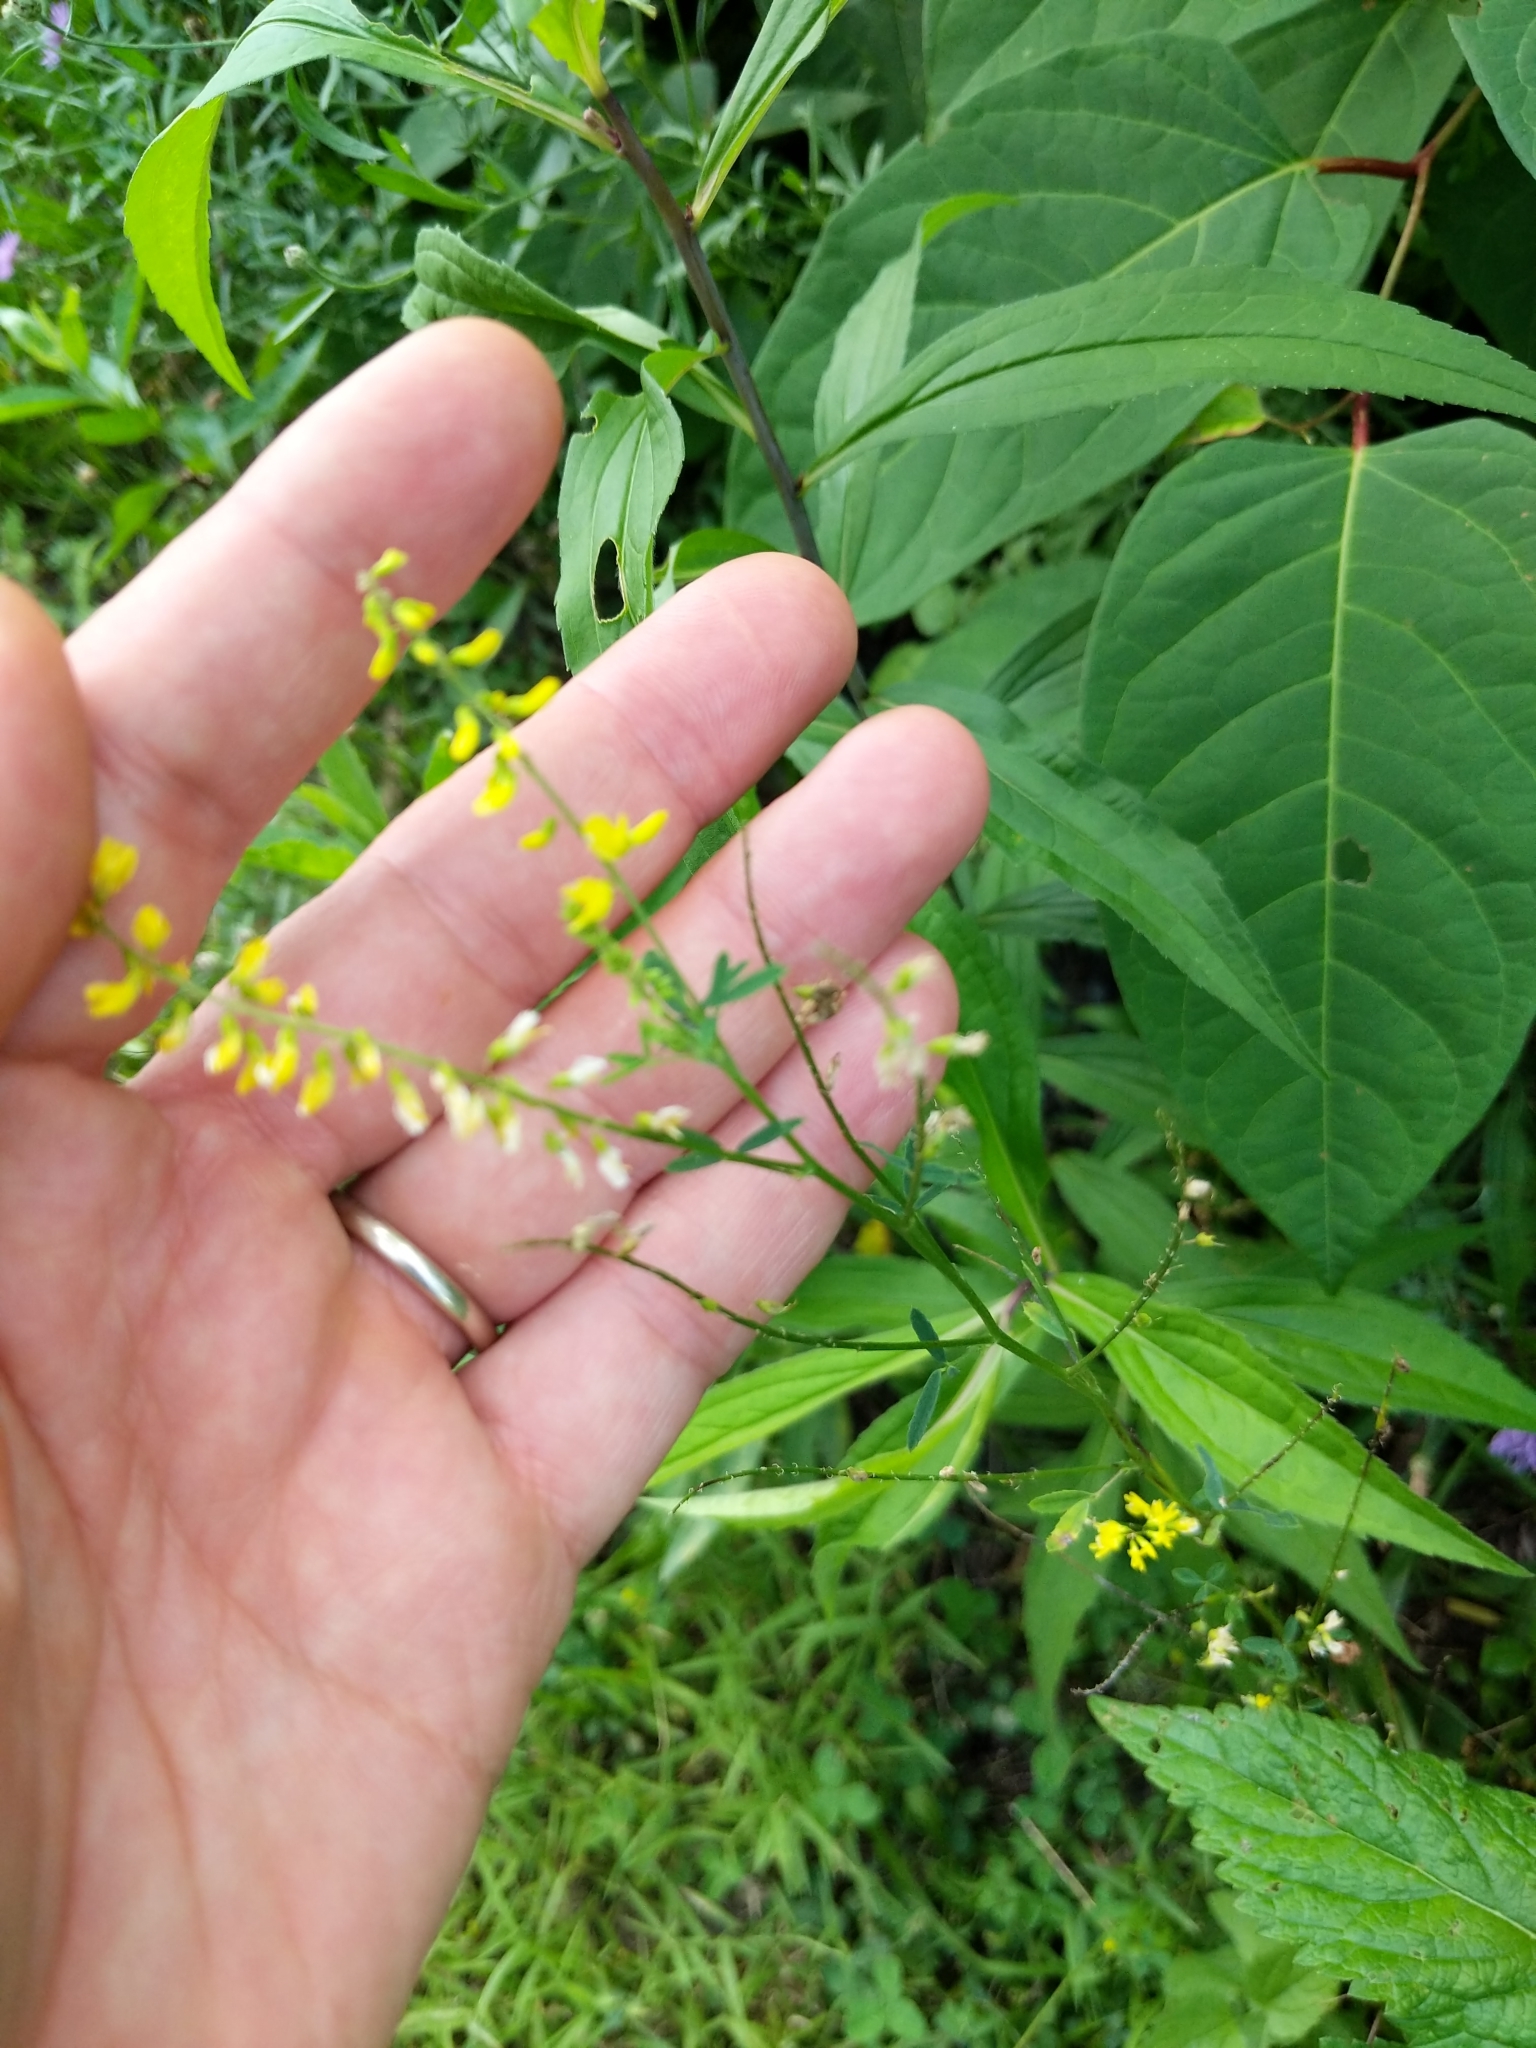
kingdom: Plantae
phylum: Tracheophyta
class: Magnoliopsida
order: Fabales
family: Fabaceae
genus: Melilotus
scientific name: Melilotus officinalis
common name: Sweetclover
